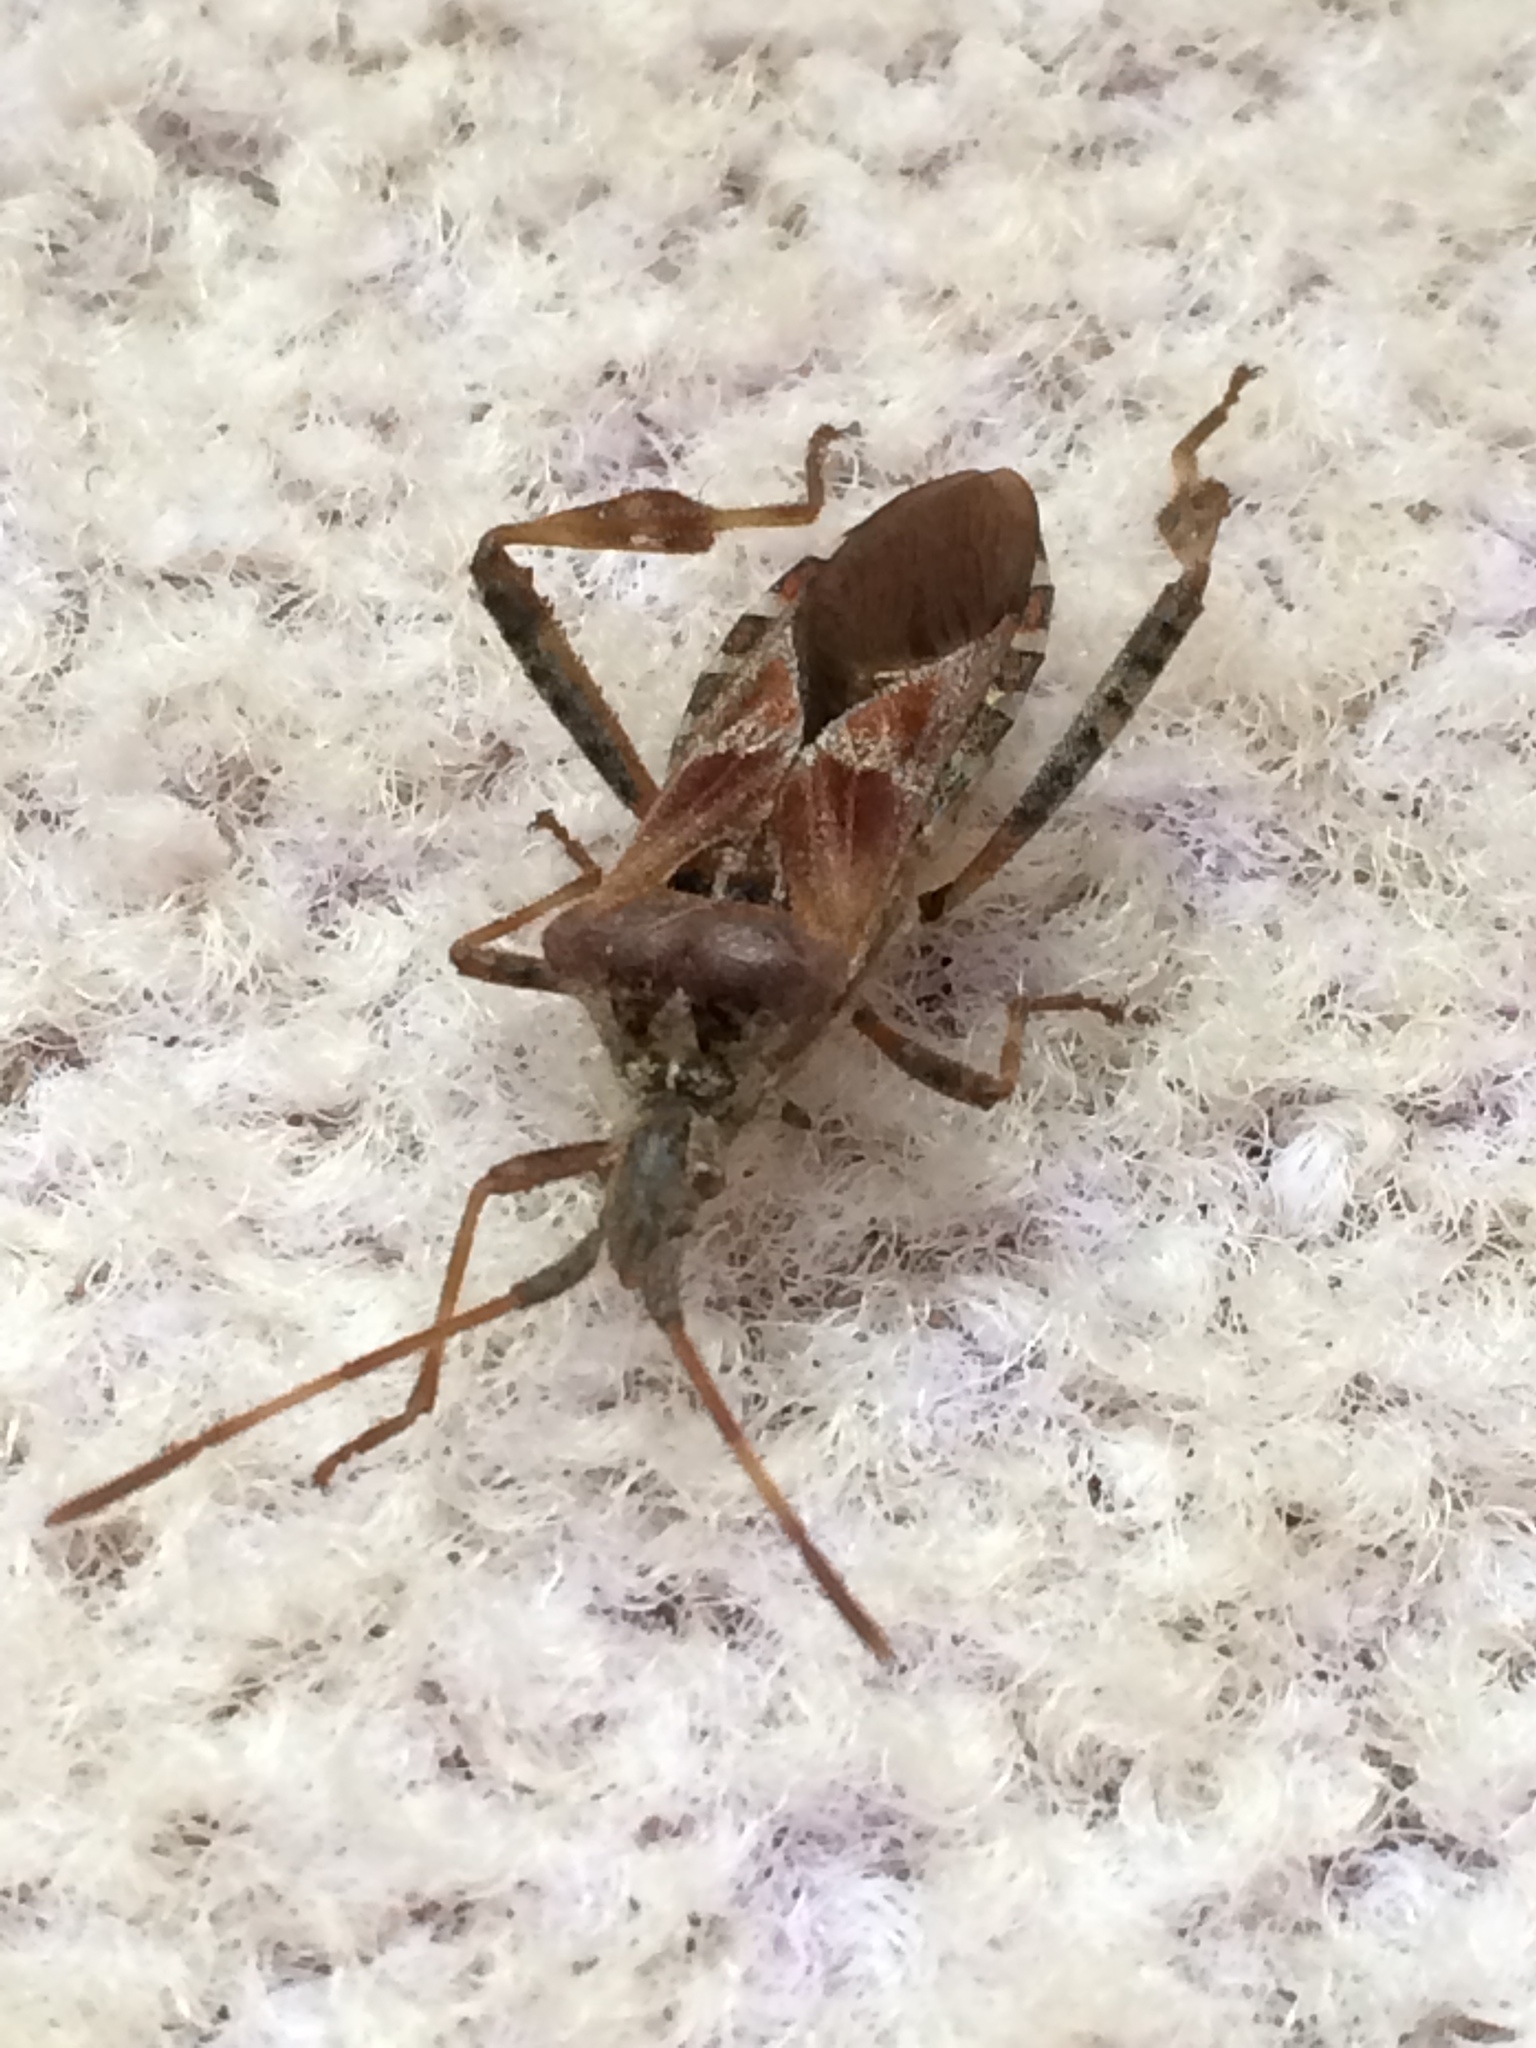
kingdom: Animalia
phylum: Arthropoda
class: Insecta
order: Hemiptera
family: Coreidae
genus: Leptoglossus
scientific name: Leptoglossus occidentalis
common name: Western conifer-seed bug
